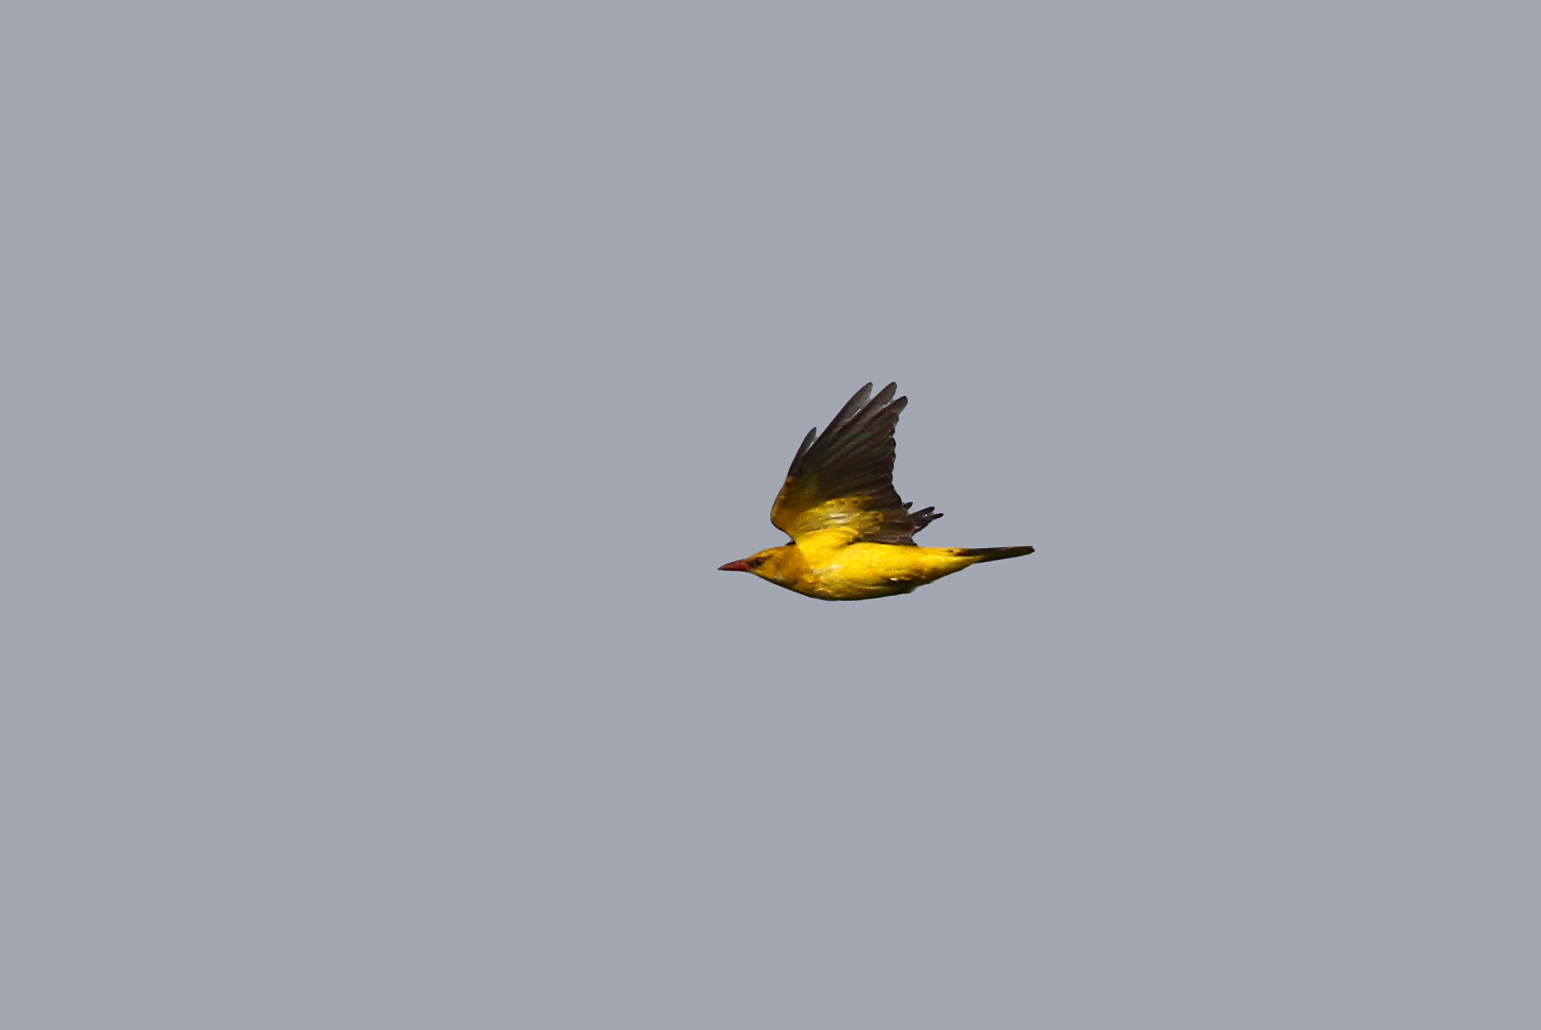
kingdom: Animalia
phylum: Chordata
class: Aves
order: Passeriformes
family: Oriolidae
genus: Oriolus
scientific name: Oriolus oriolus
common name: Eurasian golden oriole
